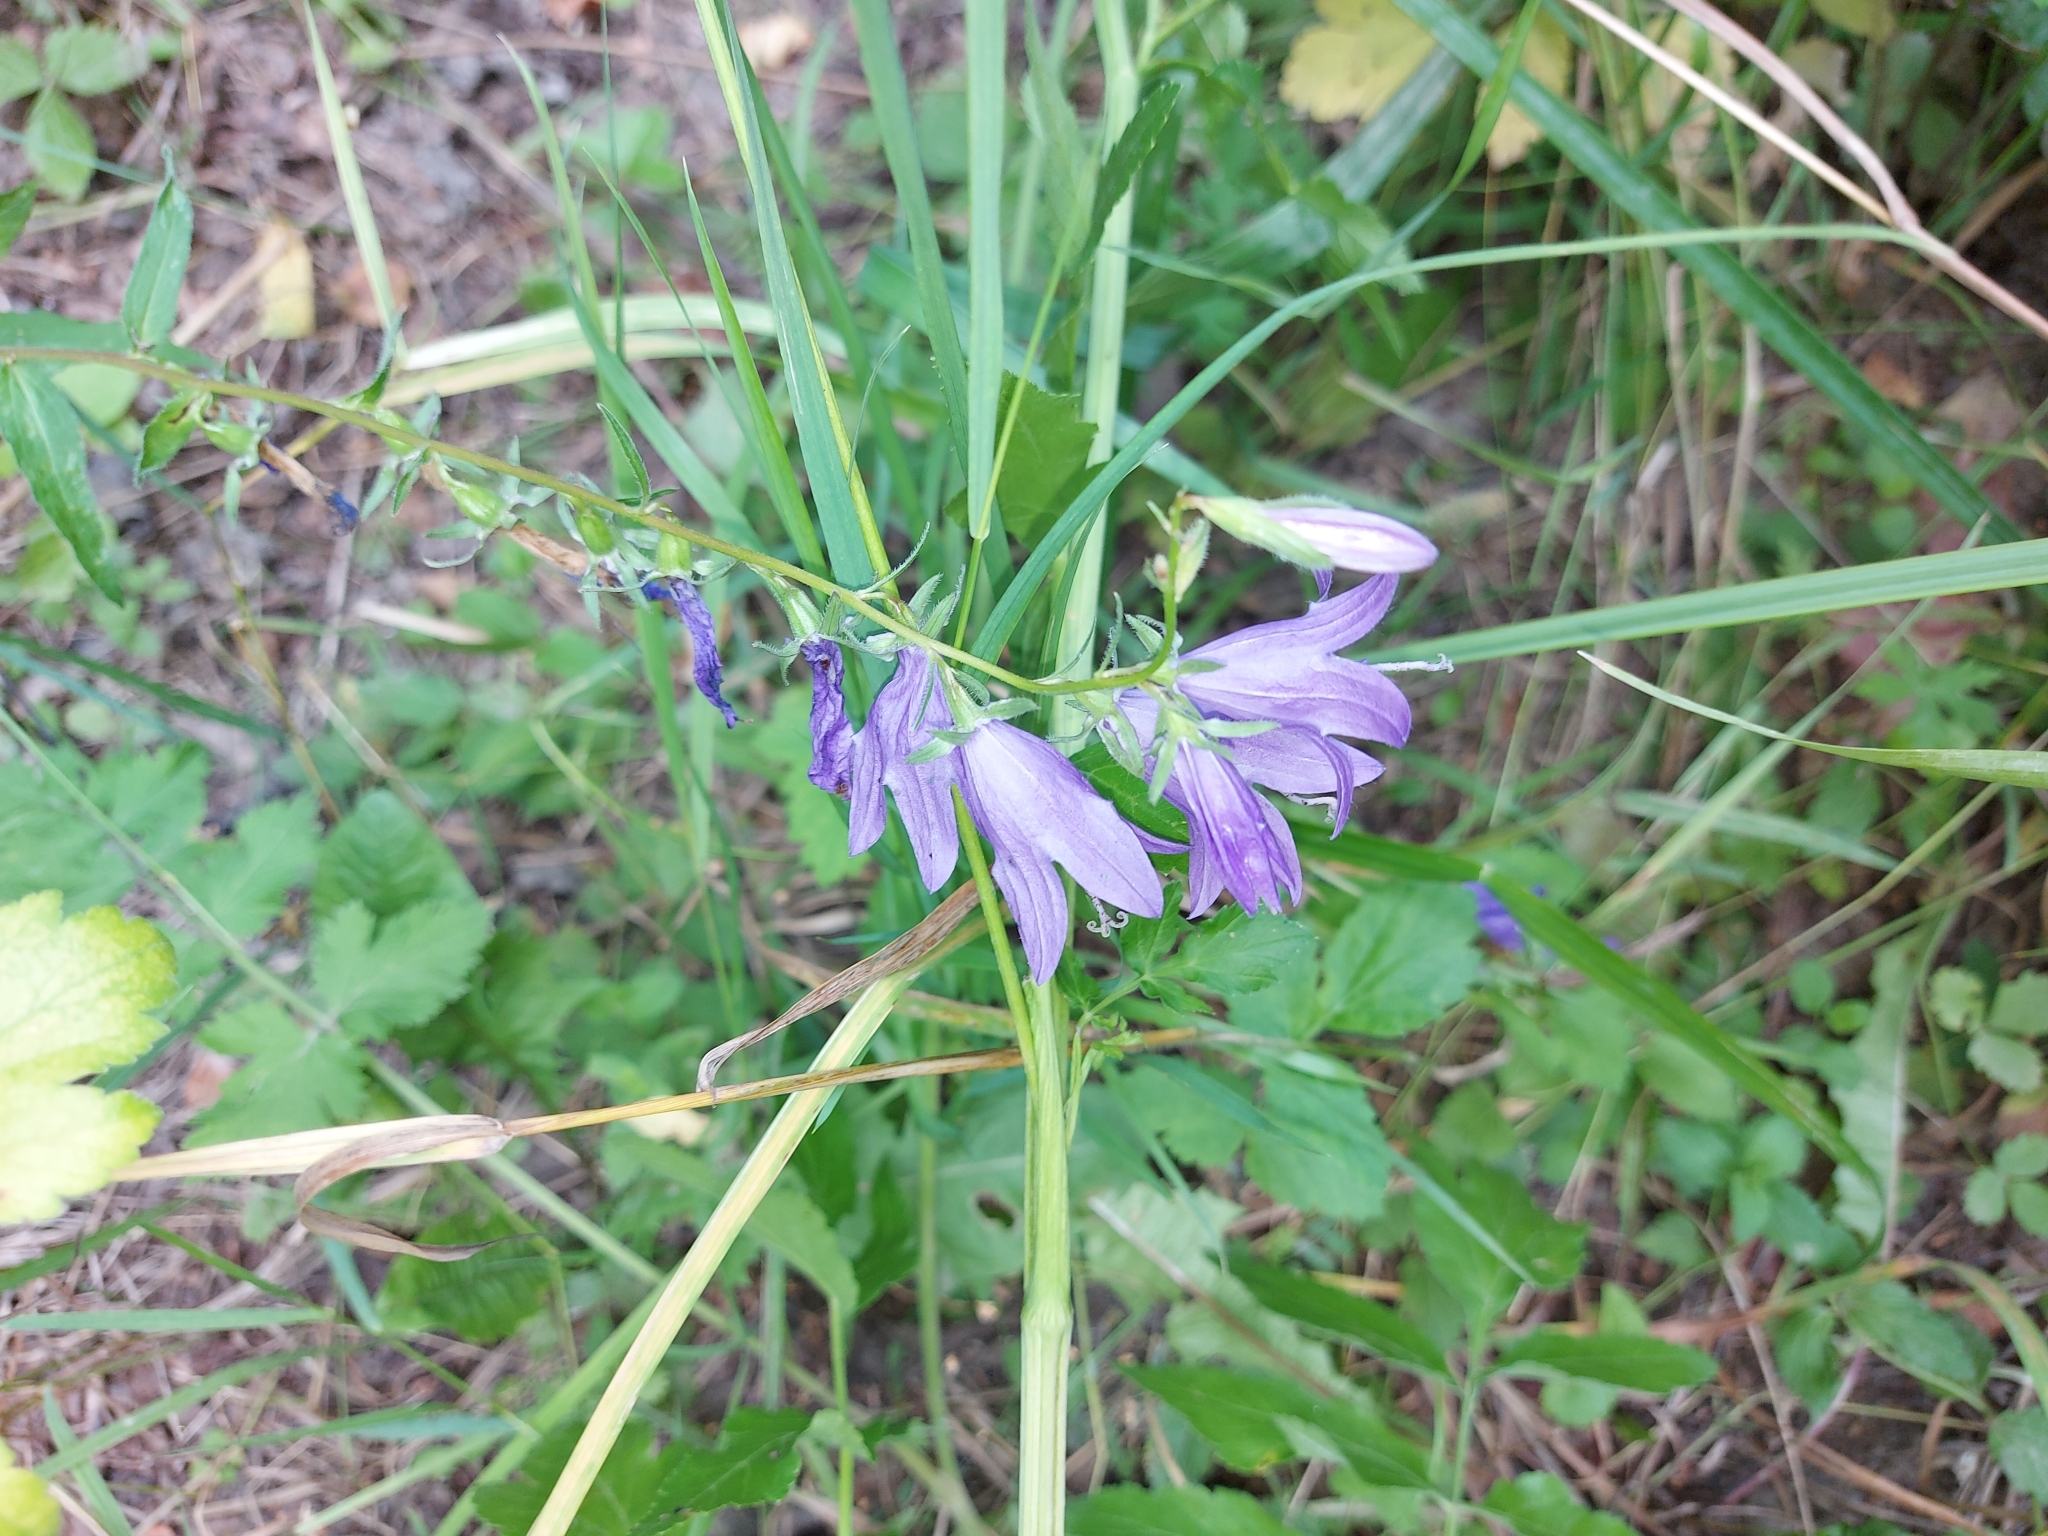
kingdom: Plantae
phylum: Tracheophyta
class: Magnoliopsida
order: Asterales
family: Campanulaceae
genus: Campanula
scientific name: Campanula rapunculoides
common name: Creeping bellflower
